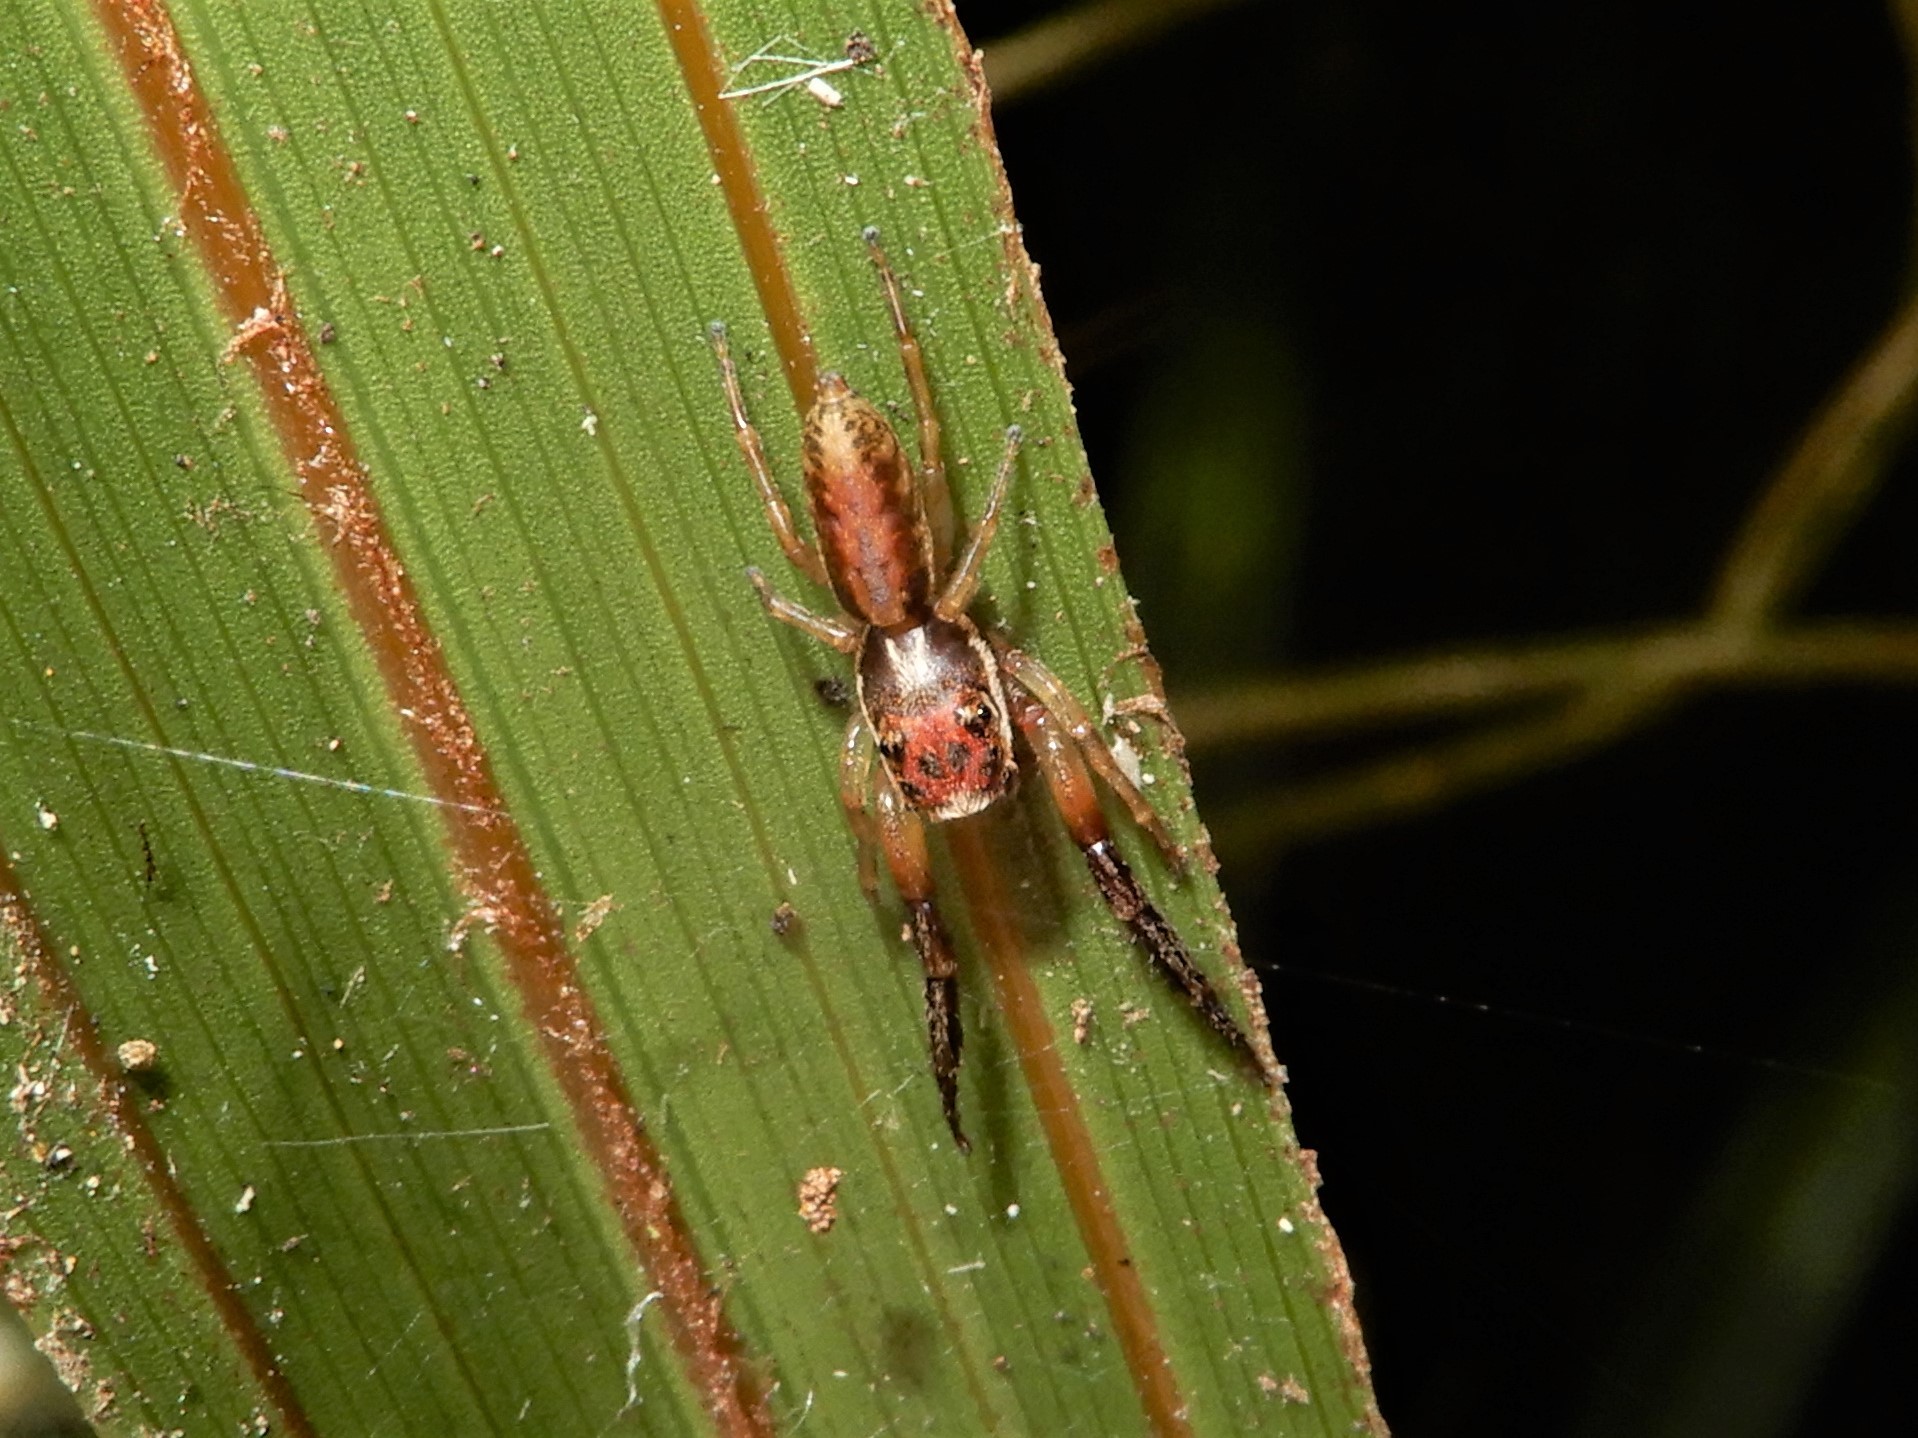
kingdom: Animalia
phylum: Arthropoda
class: Arachnida
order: Araneae
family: Salticidae
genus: Trite
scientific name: Trite mustilina
